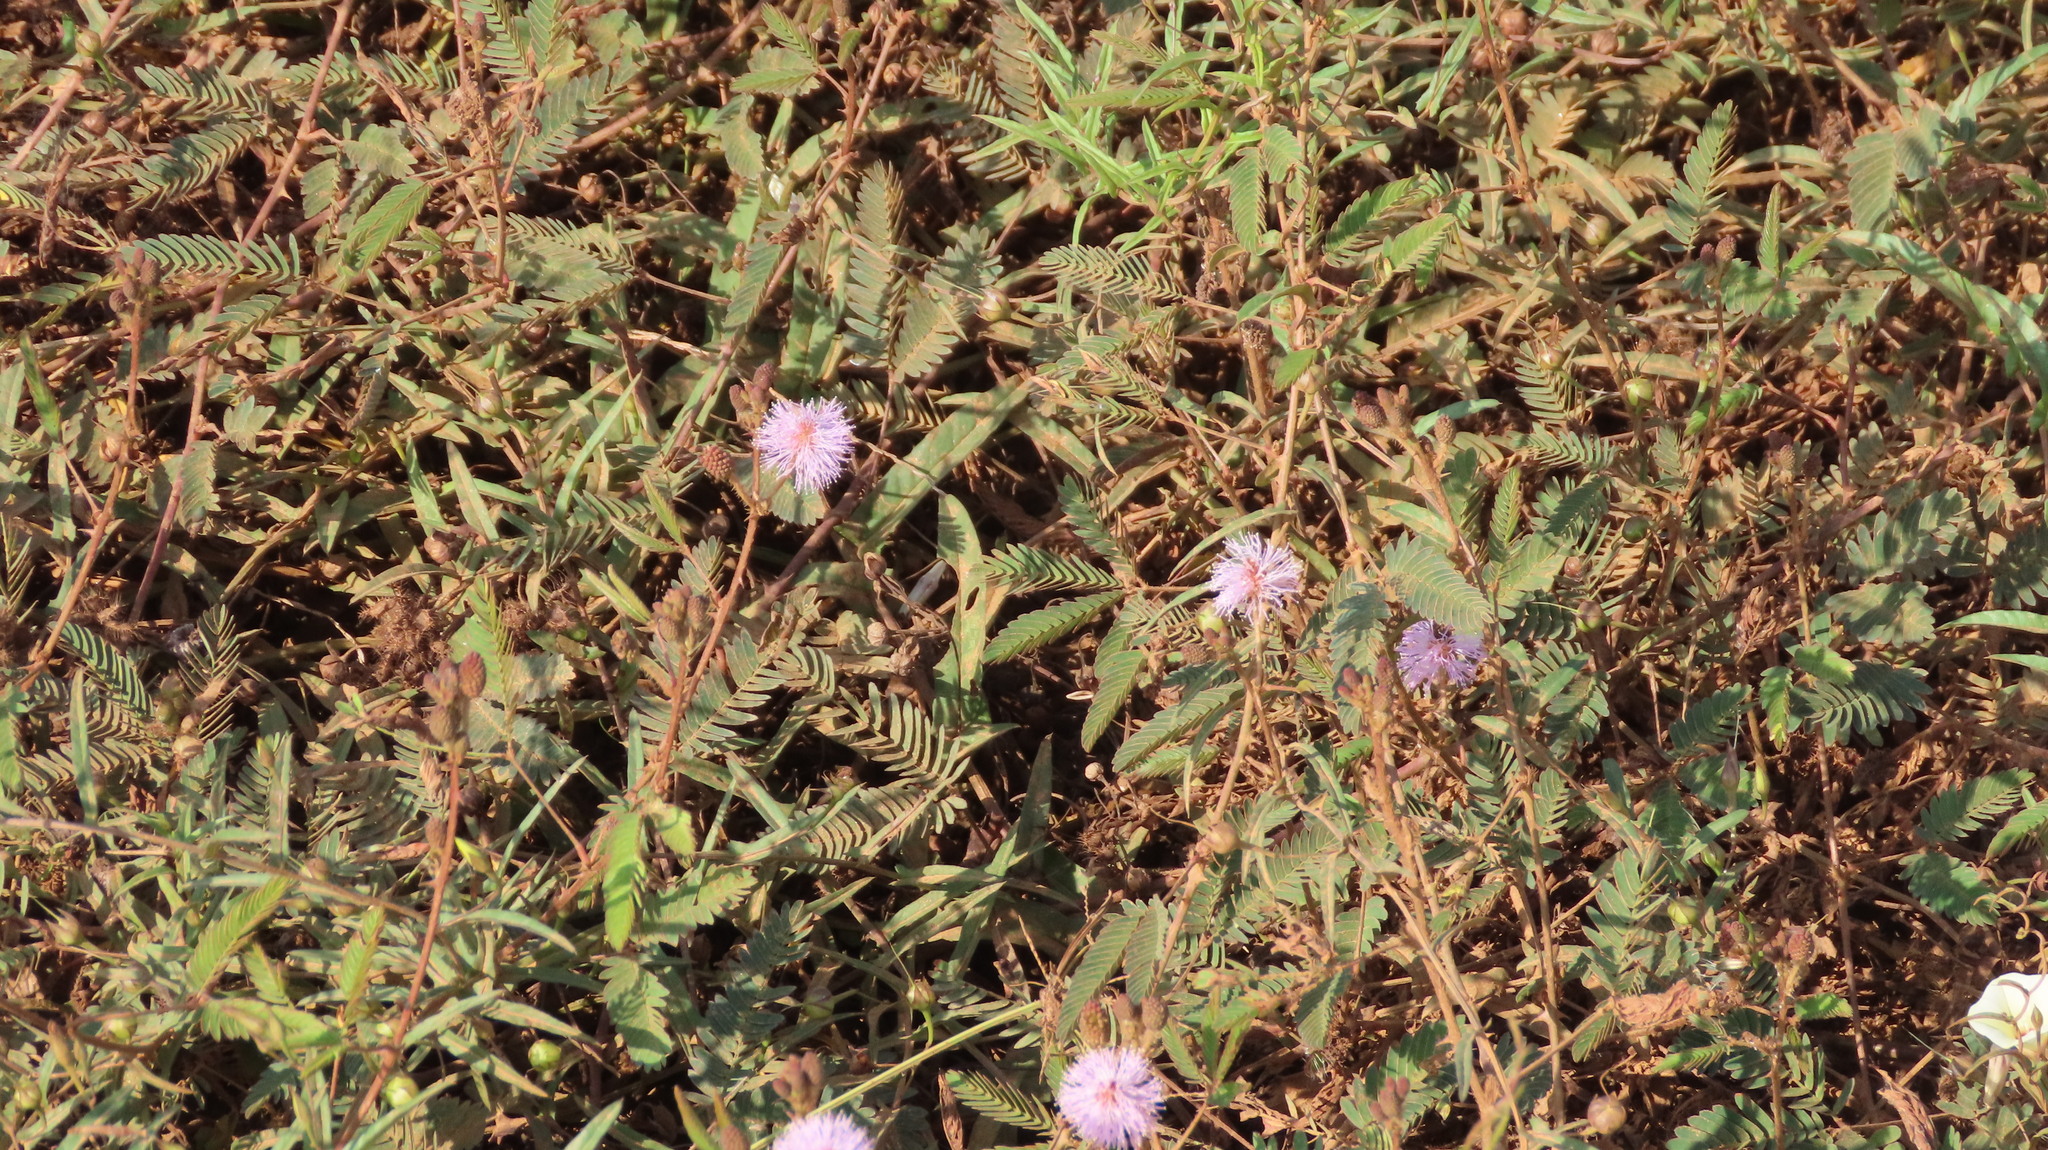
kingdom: Plantae
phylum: Tracheophyta
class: Magnoliopsida
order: Fabales
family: Fabaceae
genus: Mimosa
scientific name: Mimosa pudica
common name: Sensitive plant
